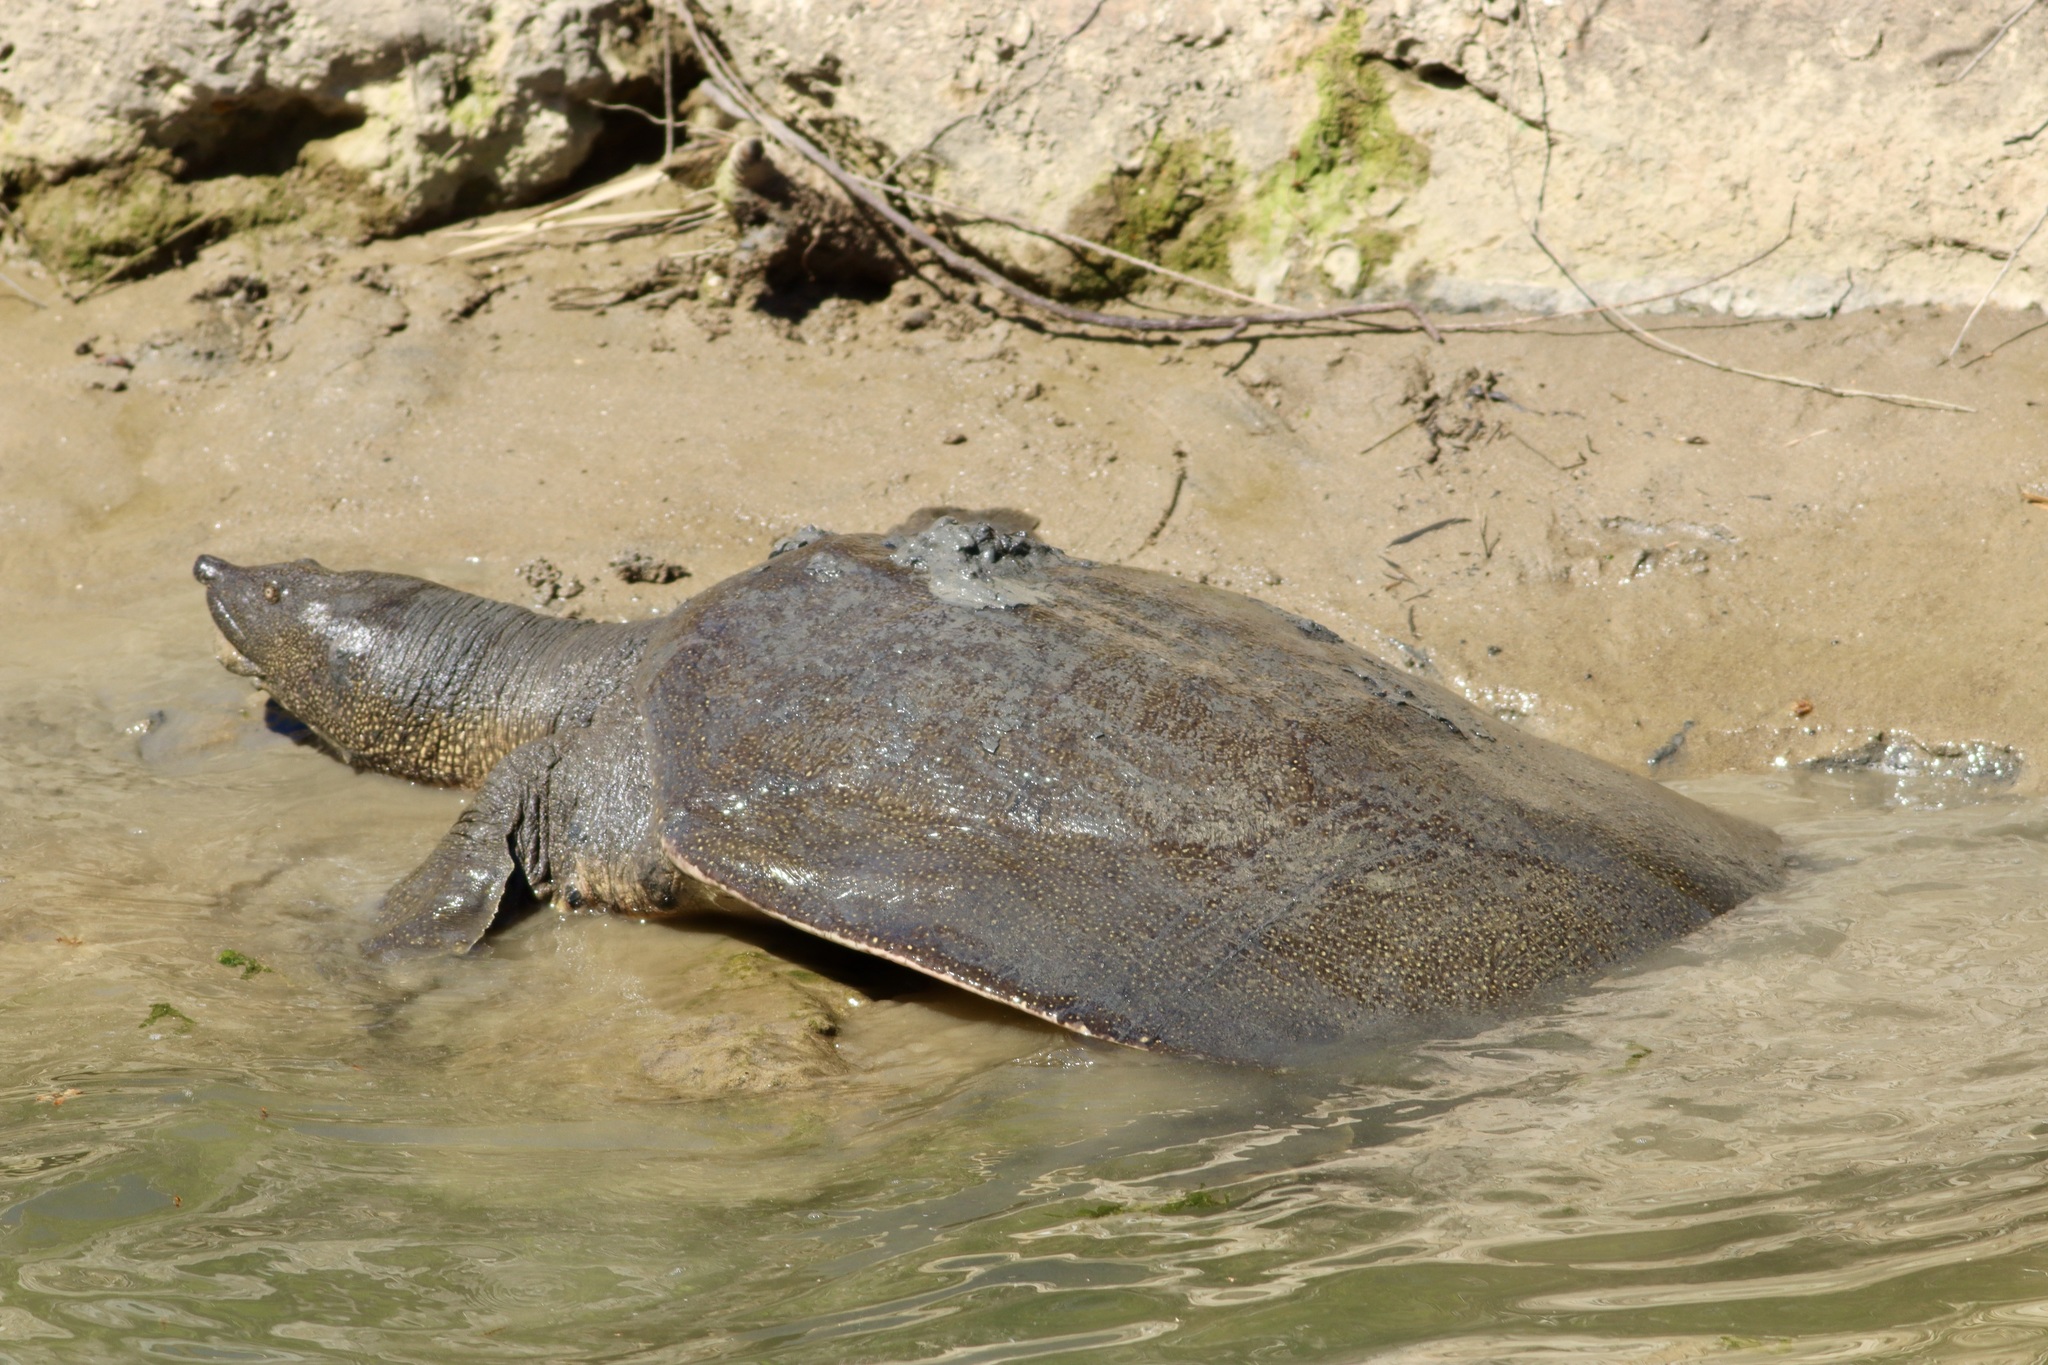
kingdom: Animalia
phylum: Chordata
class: Testudines
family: Trionychidae
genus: Trionyx
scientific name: Trionyx triunguis
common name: African softshell turtle
